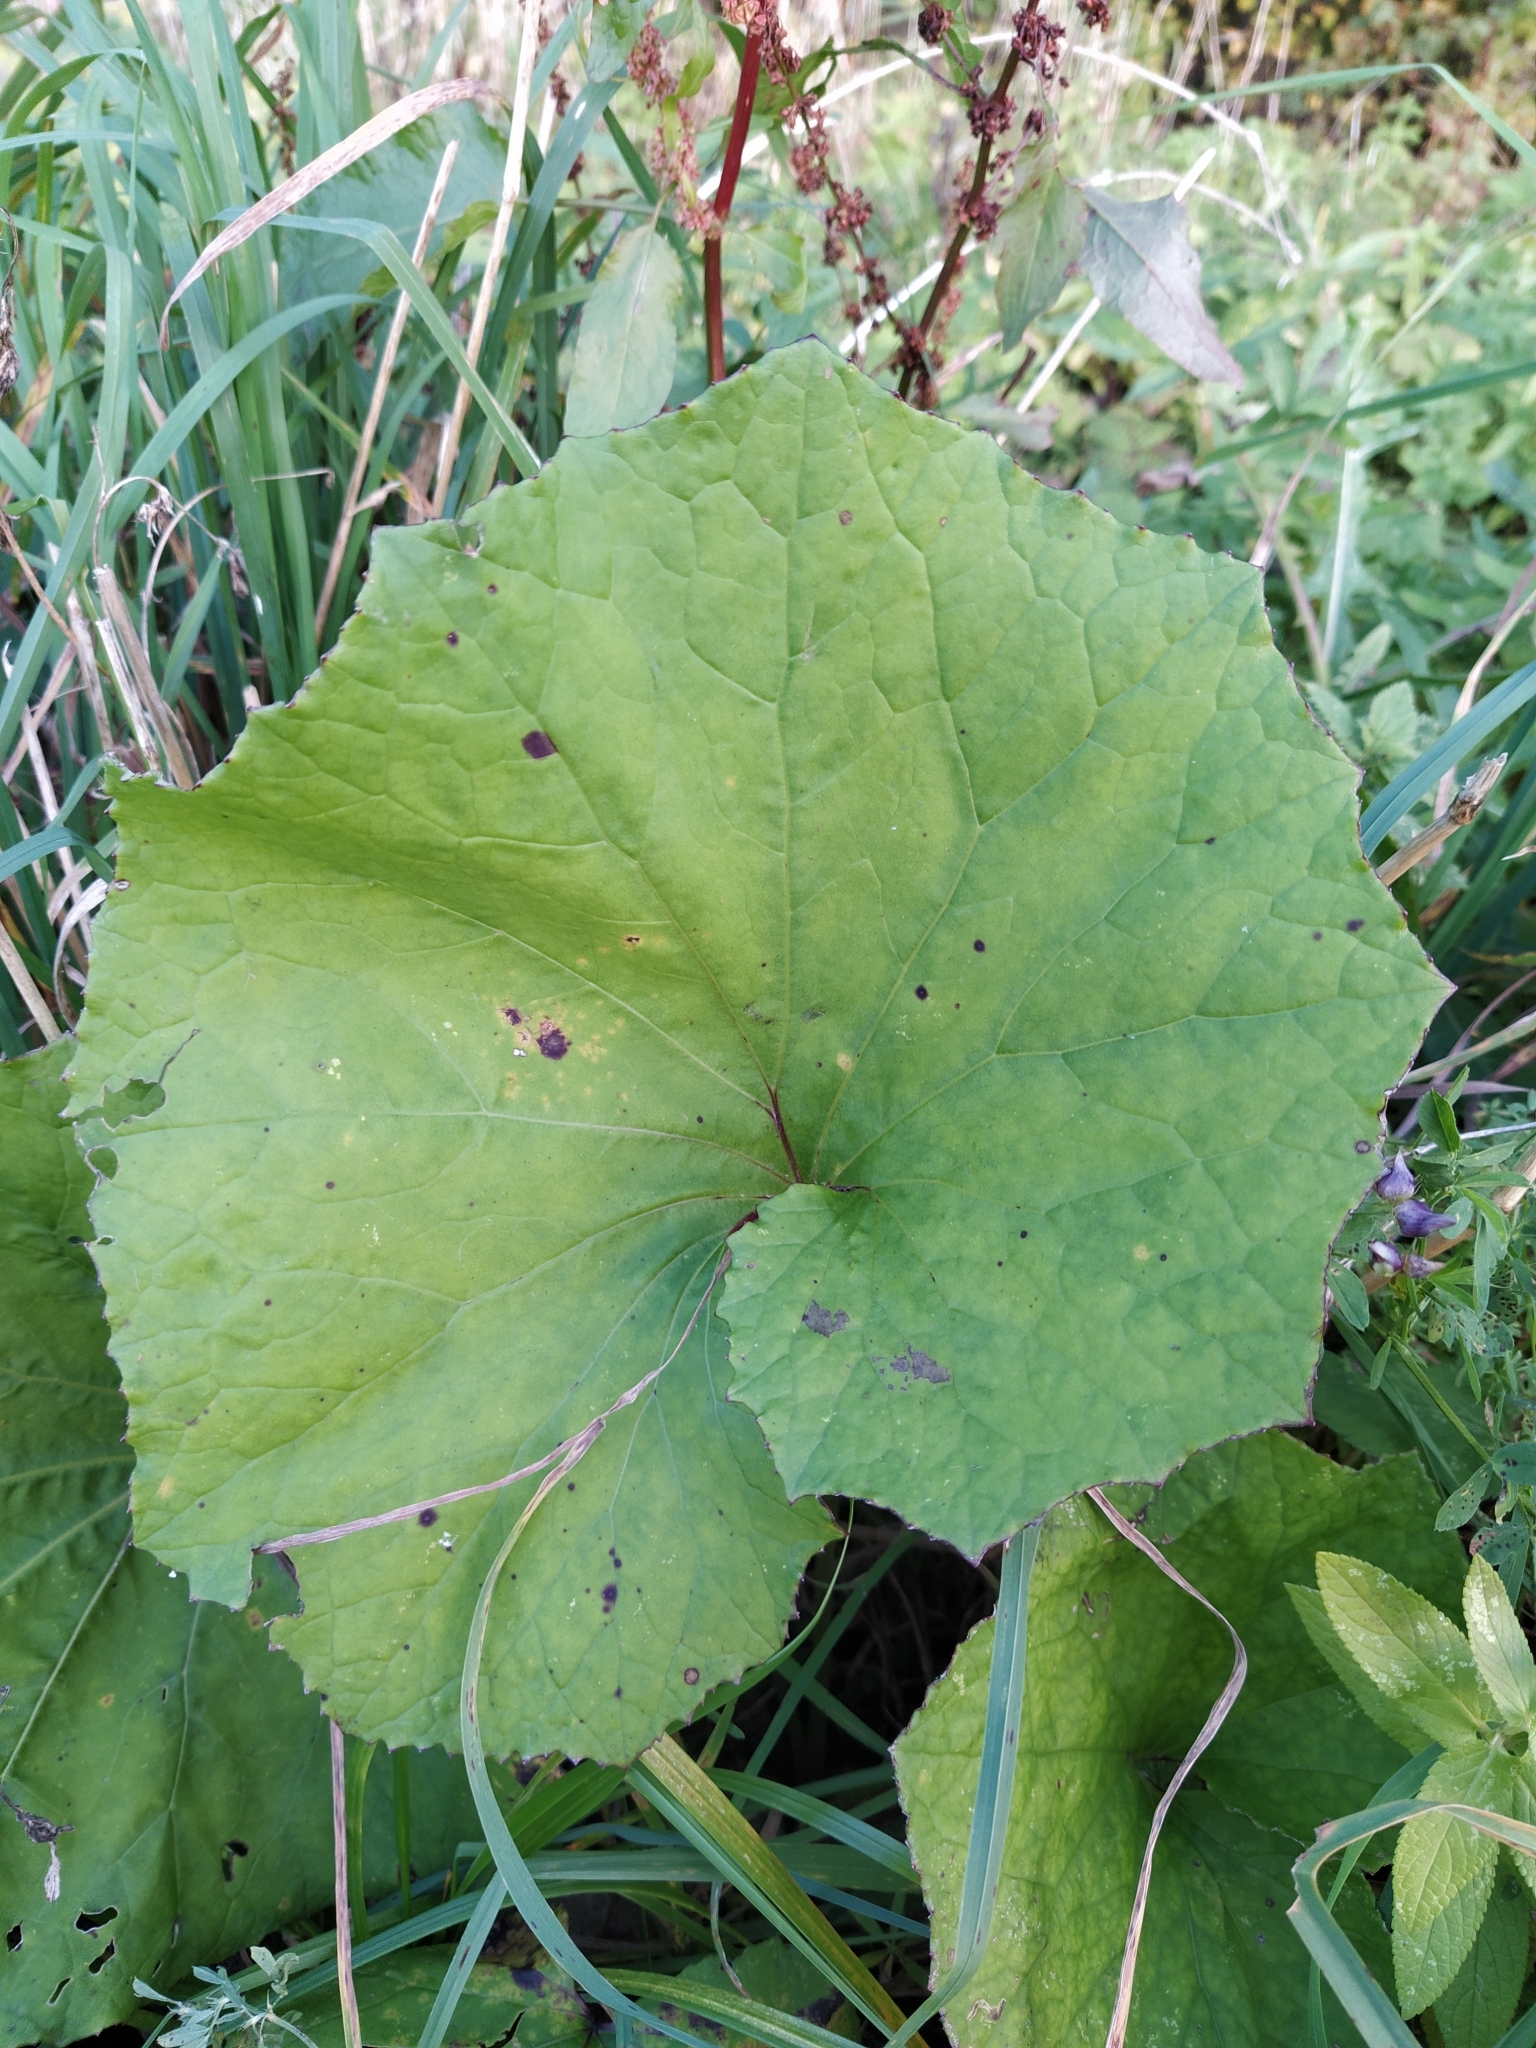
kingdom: Plantae
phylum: Tracheophyta
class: Magnoliopsida
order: Asterales
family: Asteraceae
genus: Tussilago
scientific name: Tussilago farfara
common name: Coltsfoot
